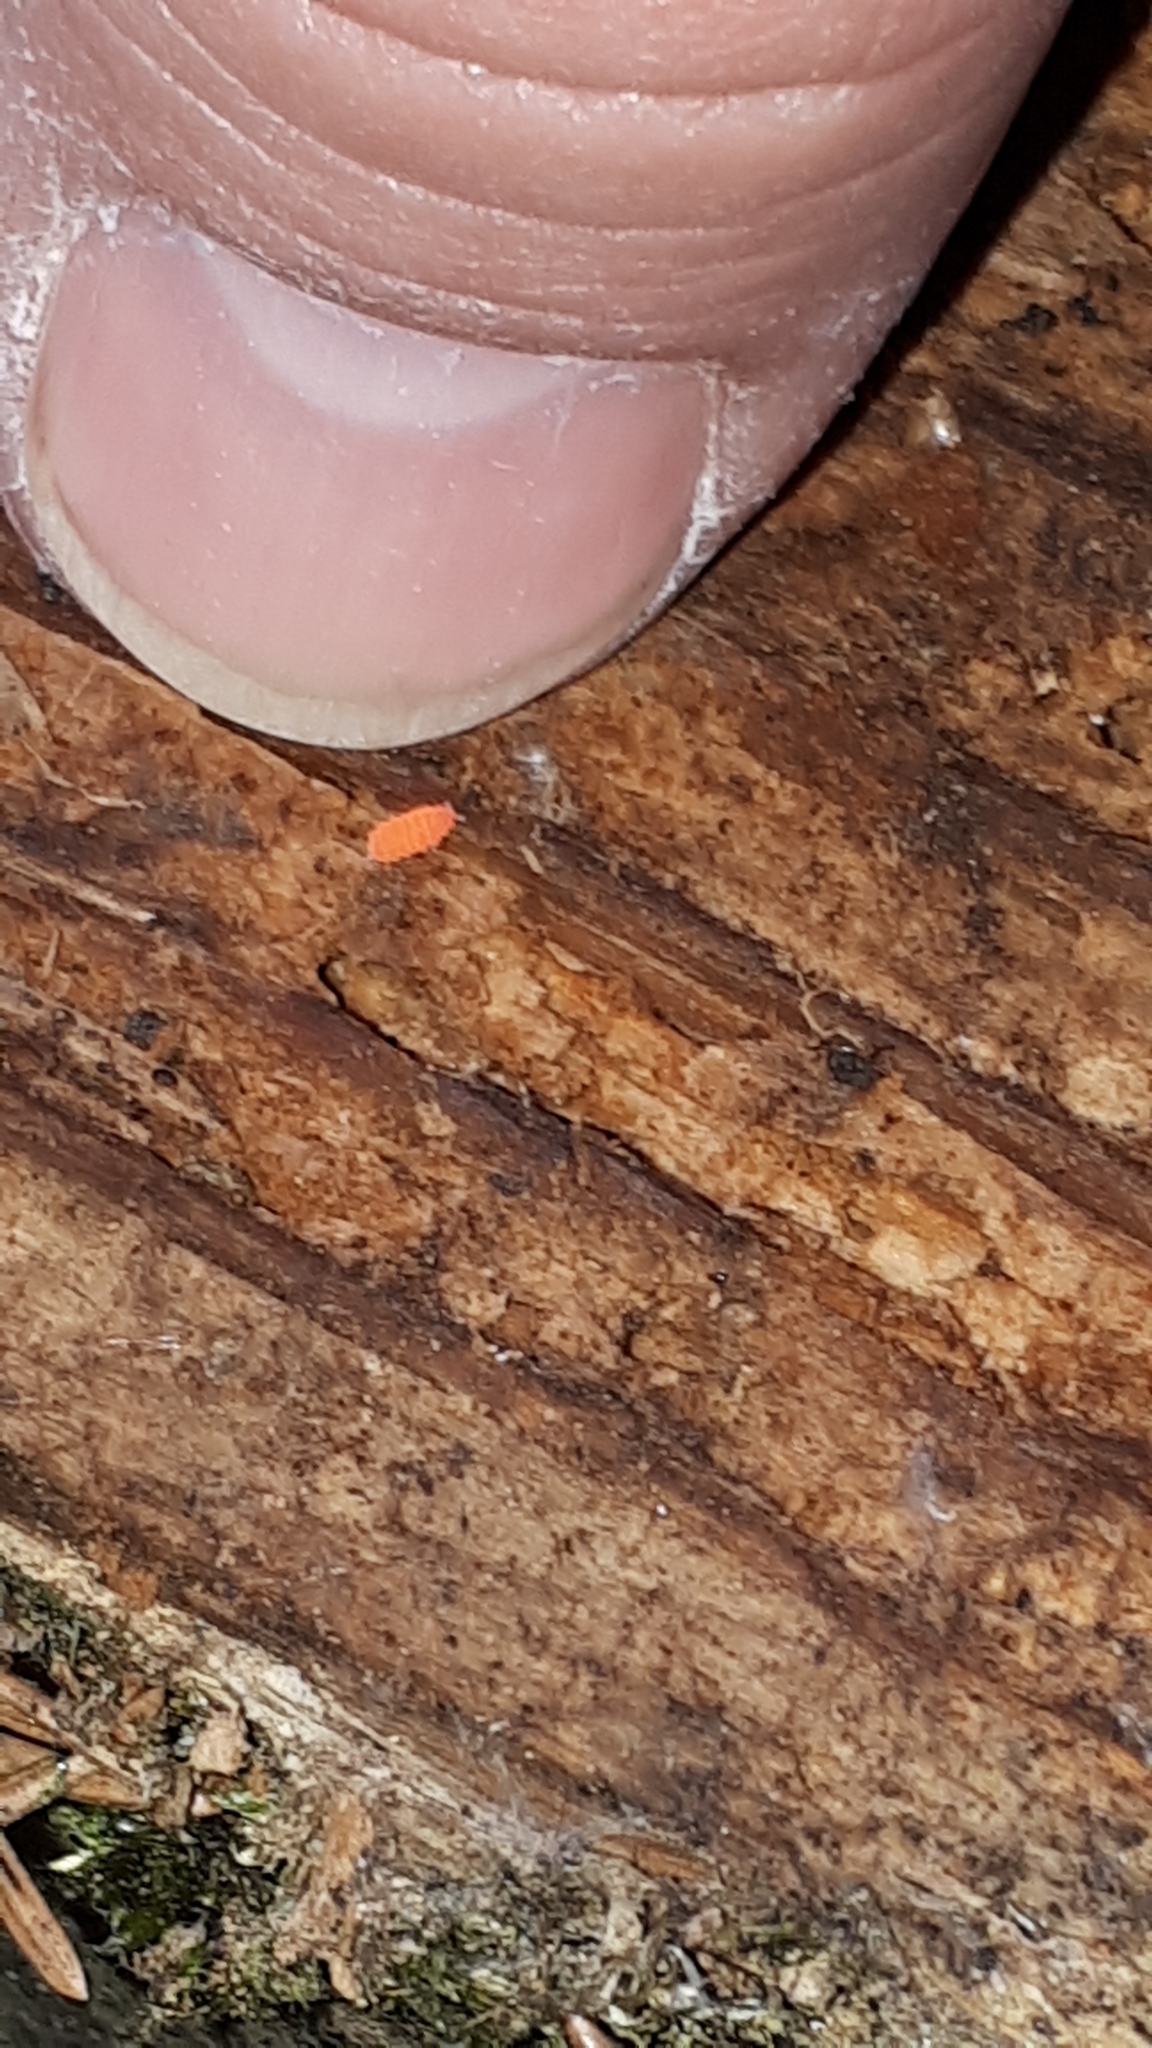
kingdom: Animalia
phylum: Arthropoda
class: Collembola
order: Poduromorpha
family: Neanuridae
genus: Bilobella
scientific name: Bilobella braunerae
